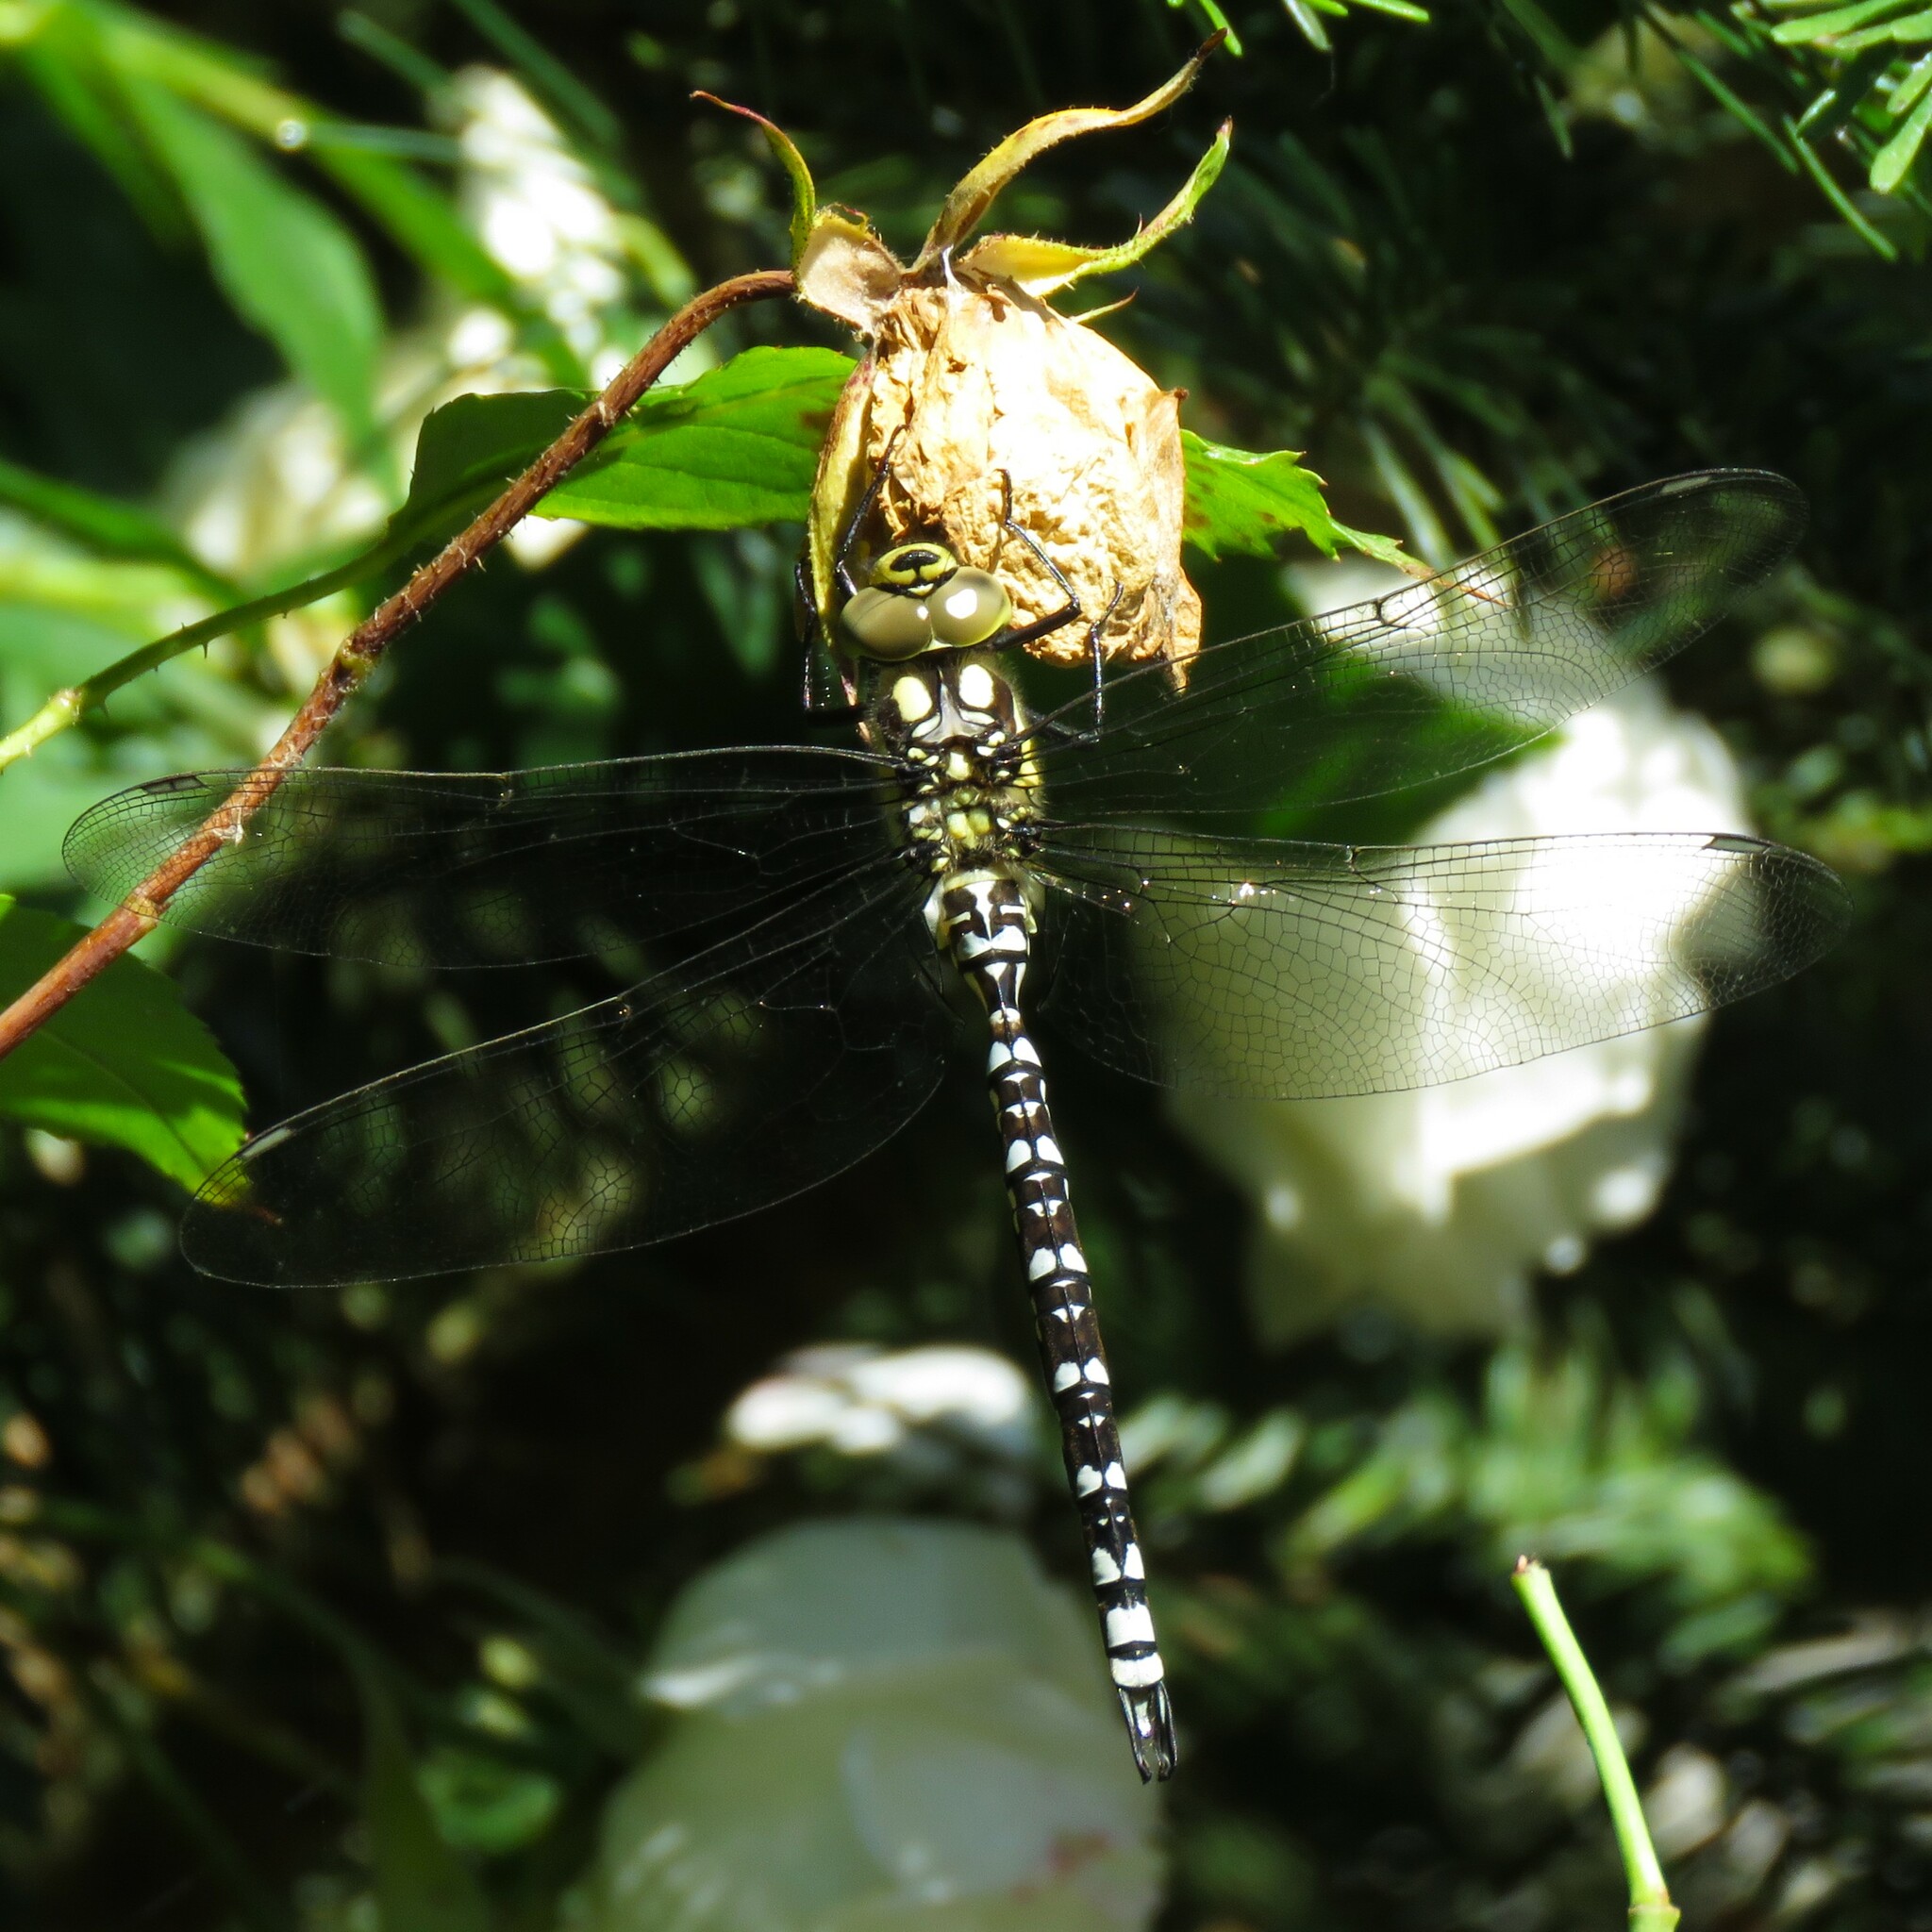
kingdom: Animalia
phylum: Arthropoda
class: Insecta
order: Odonata
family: Aeshnidae
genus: Aeshna
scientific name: Aeshna cyanea
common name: Southern hawker
